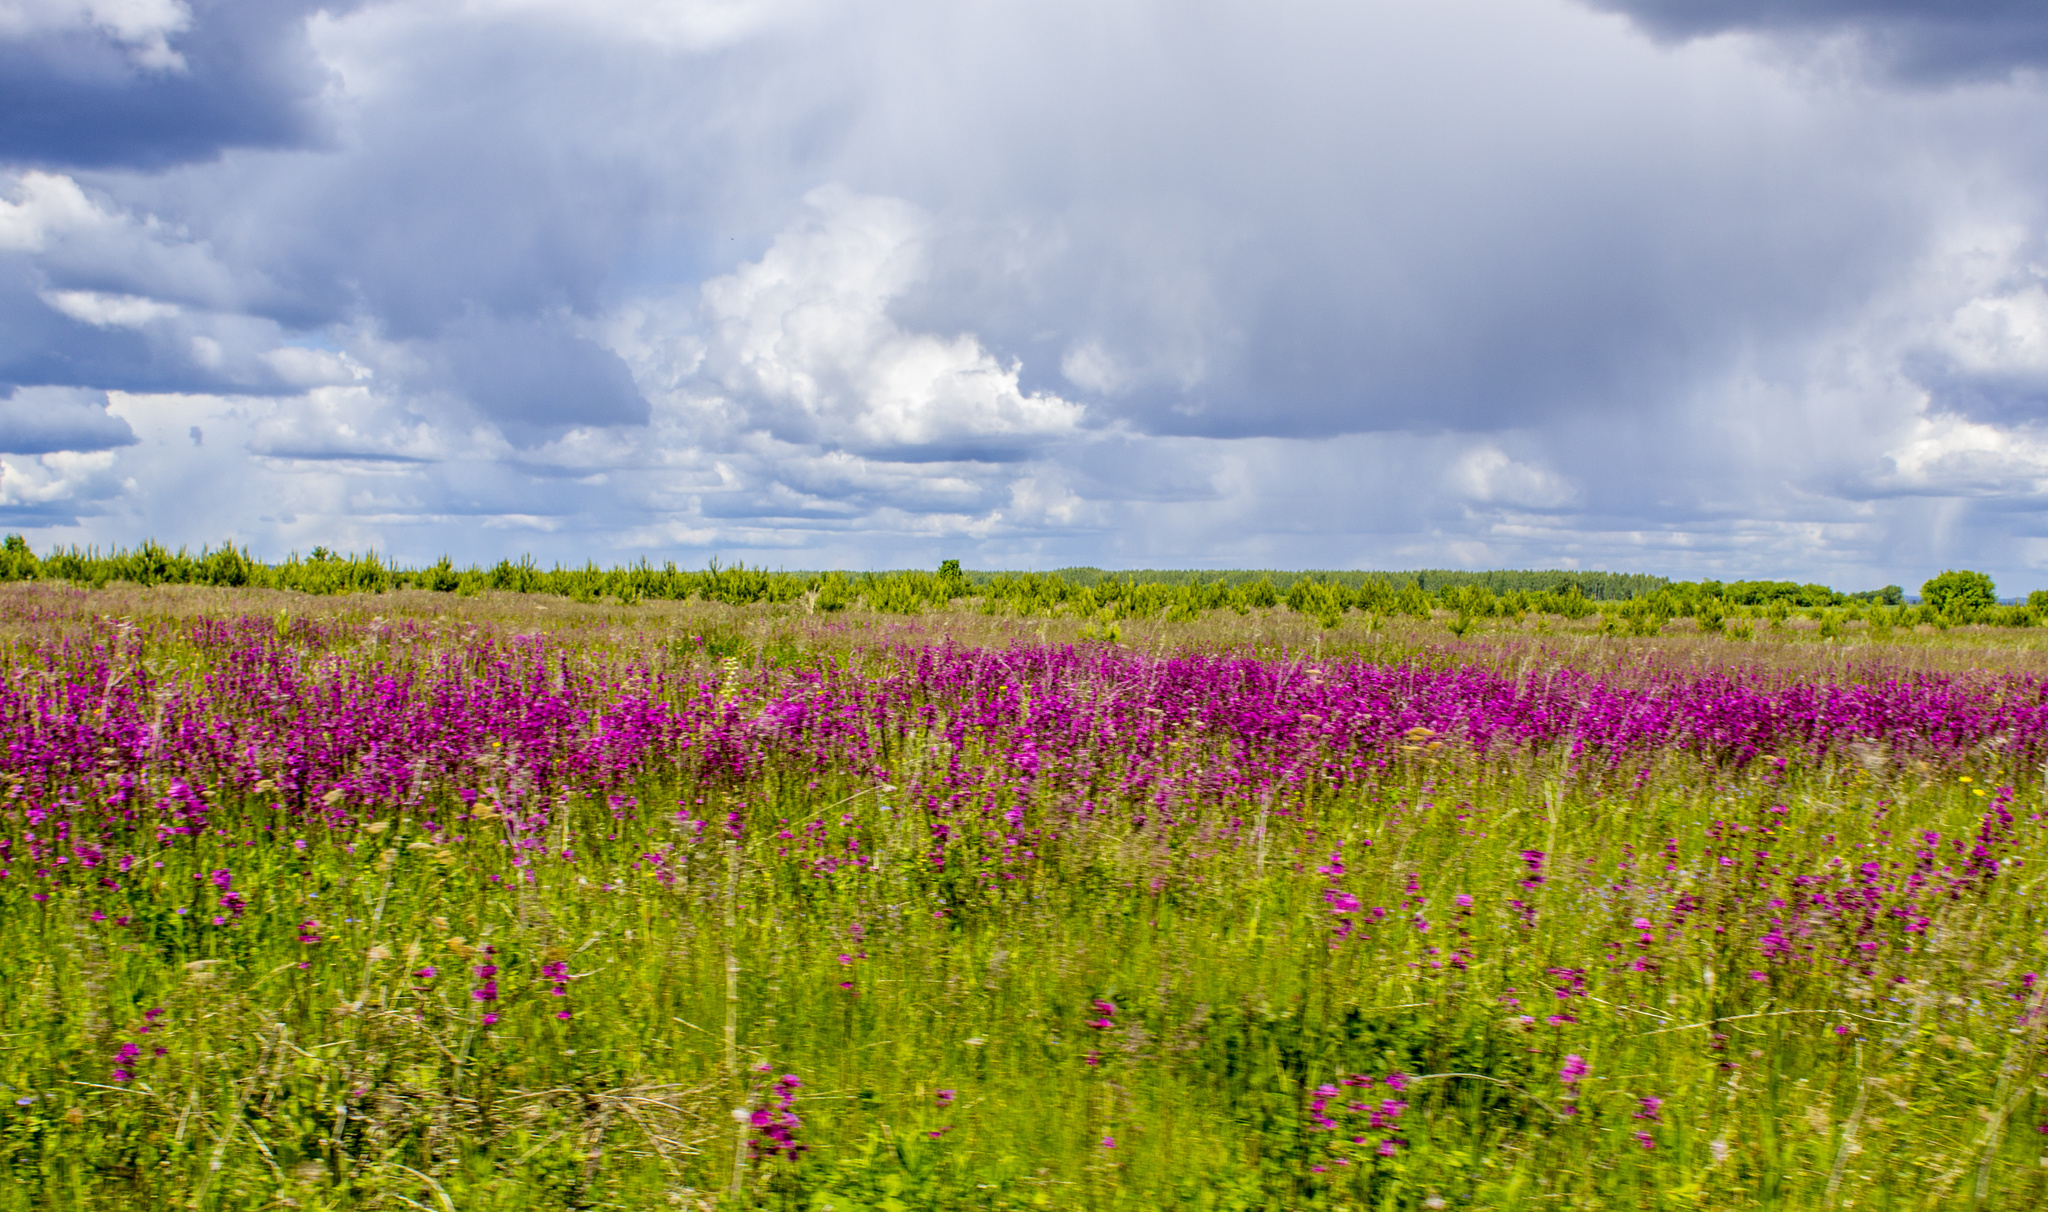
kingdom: Plantae
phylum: Tracheophyta
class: Magnoliopsida
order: Caryophyllales
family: Caryophyllaceae
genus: Viscaria
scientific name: Viscaria vulgaris
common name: Clammy campion
